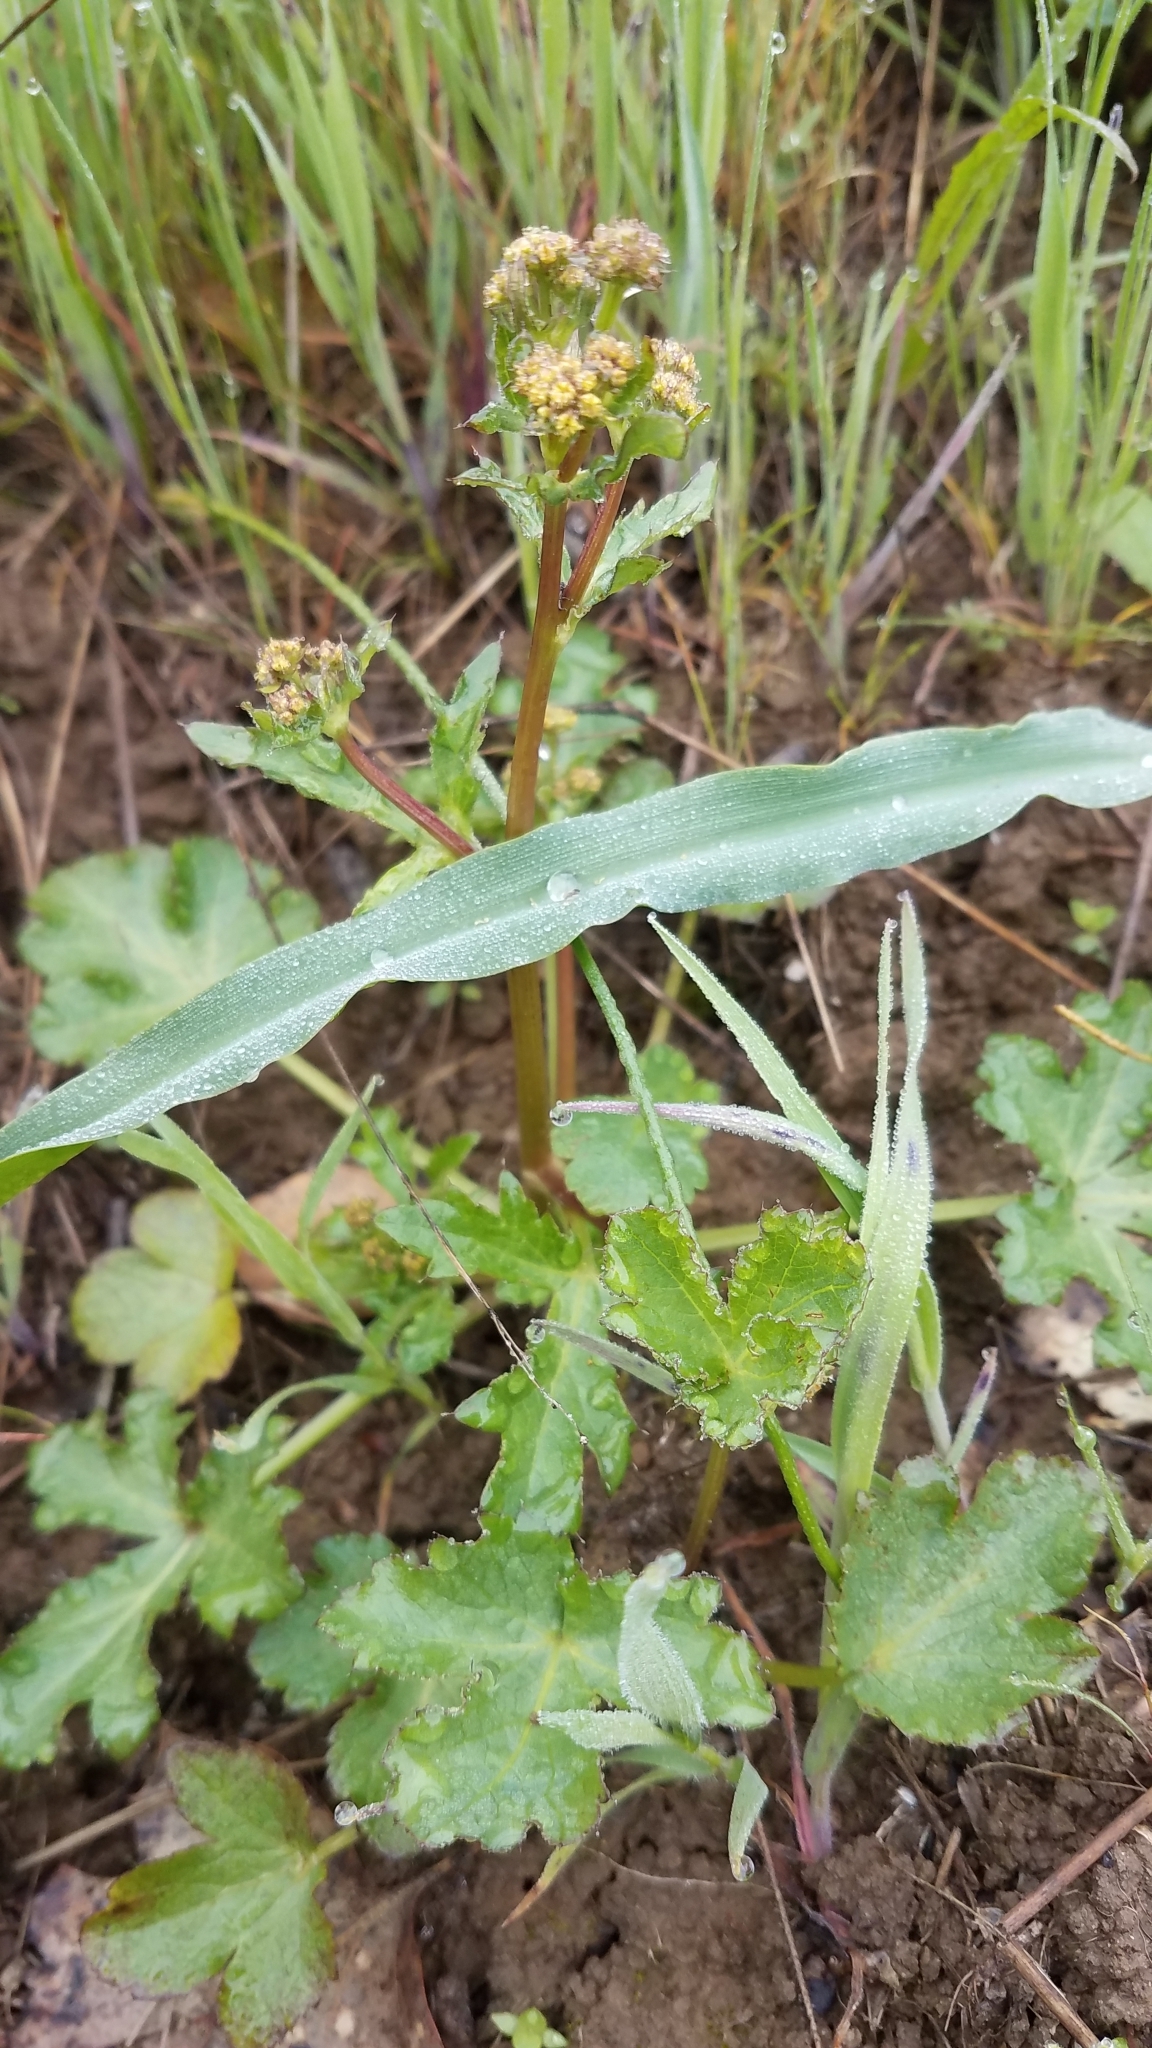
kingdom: Plantae
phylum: Tracheophyta
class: Magnoliopsida
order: Apiales
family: Apiaceae
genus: Sanicula
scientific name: Sanicula crassicaulis
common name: Western snakeroot
